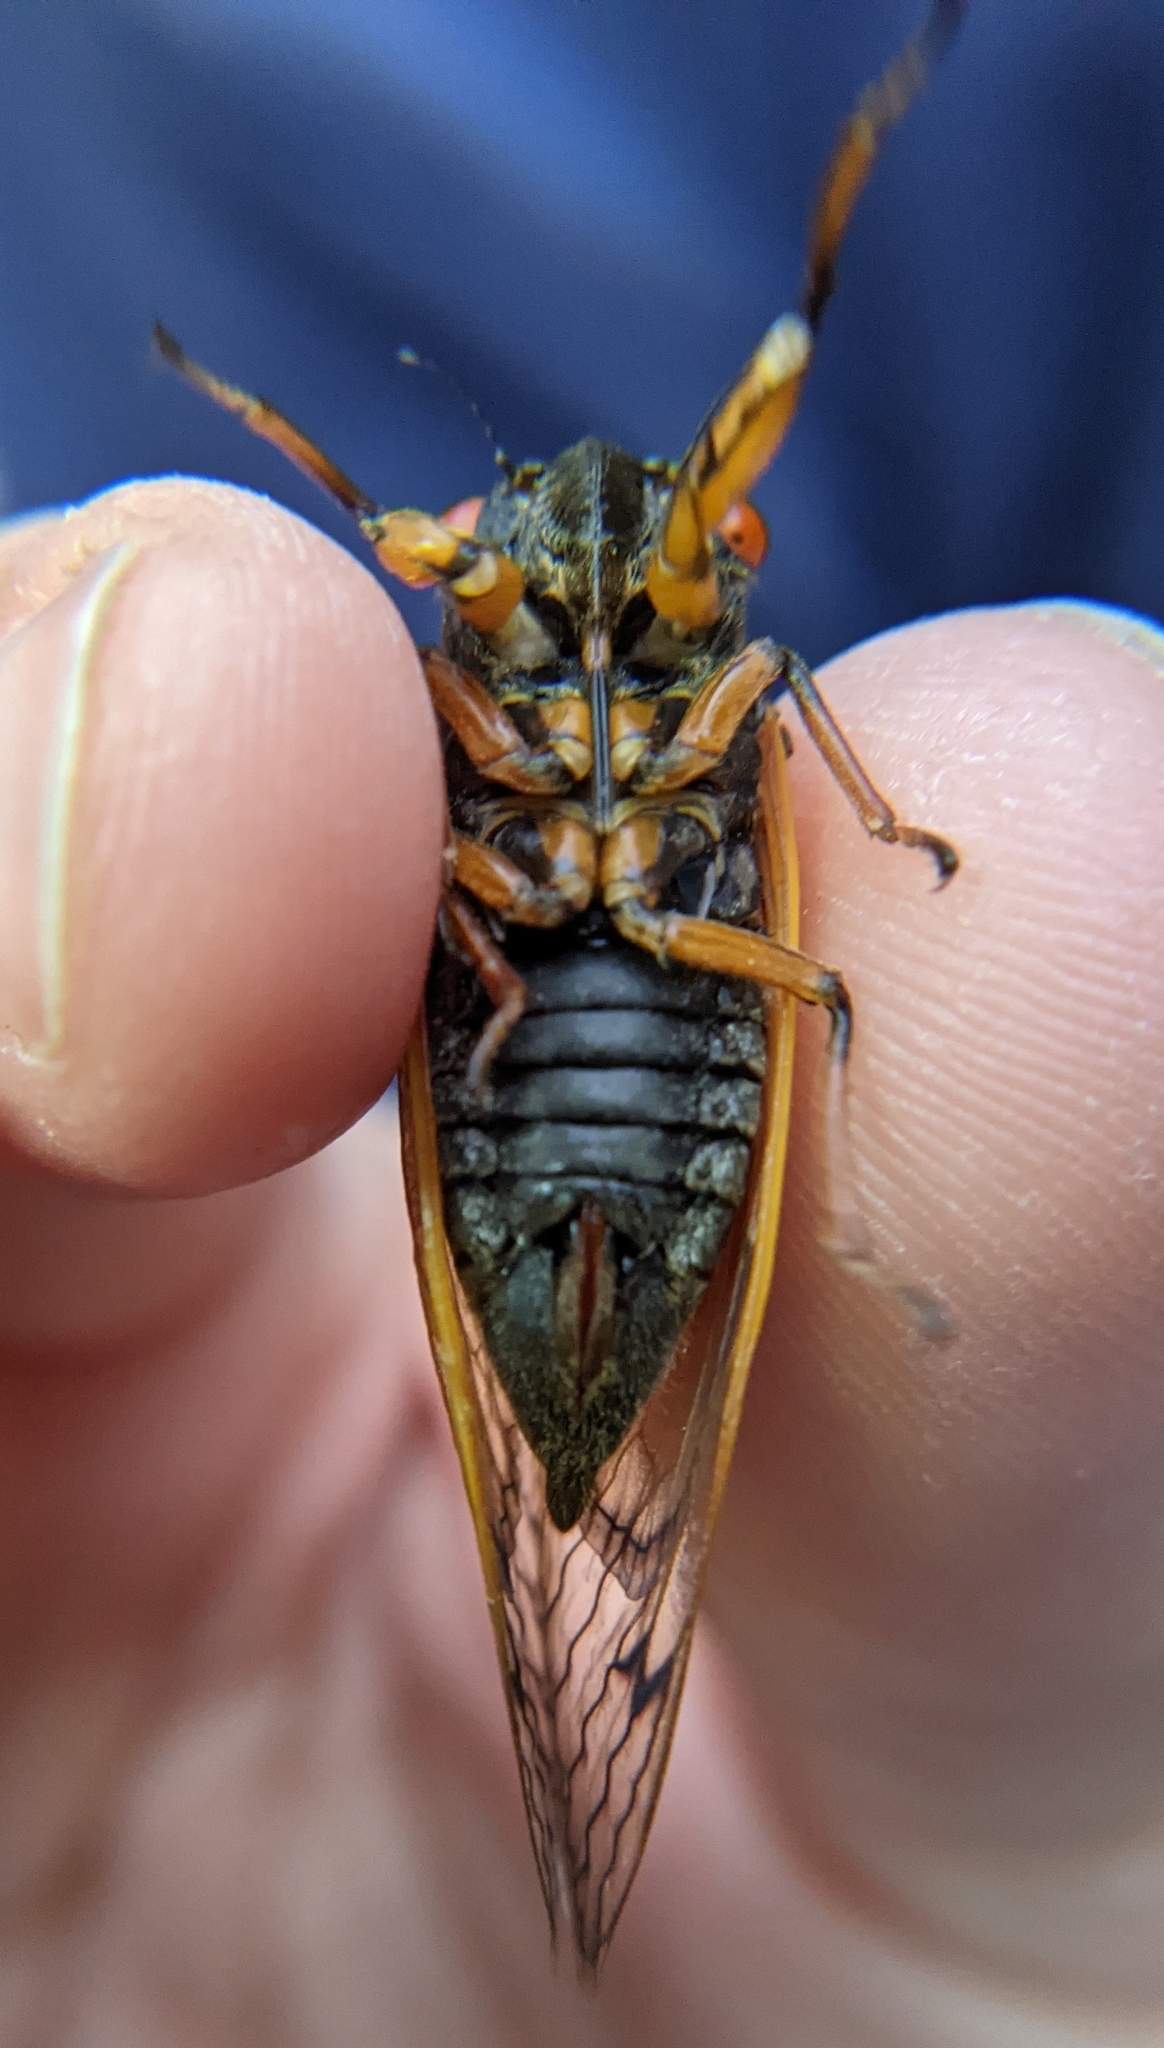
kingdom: Animalia
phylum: Arthropoda
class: Insecta
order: Hemiptera
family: Cicadidae
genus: Magicicada
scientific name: Magicicada cassini
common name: Cassin's 17-year cicada
